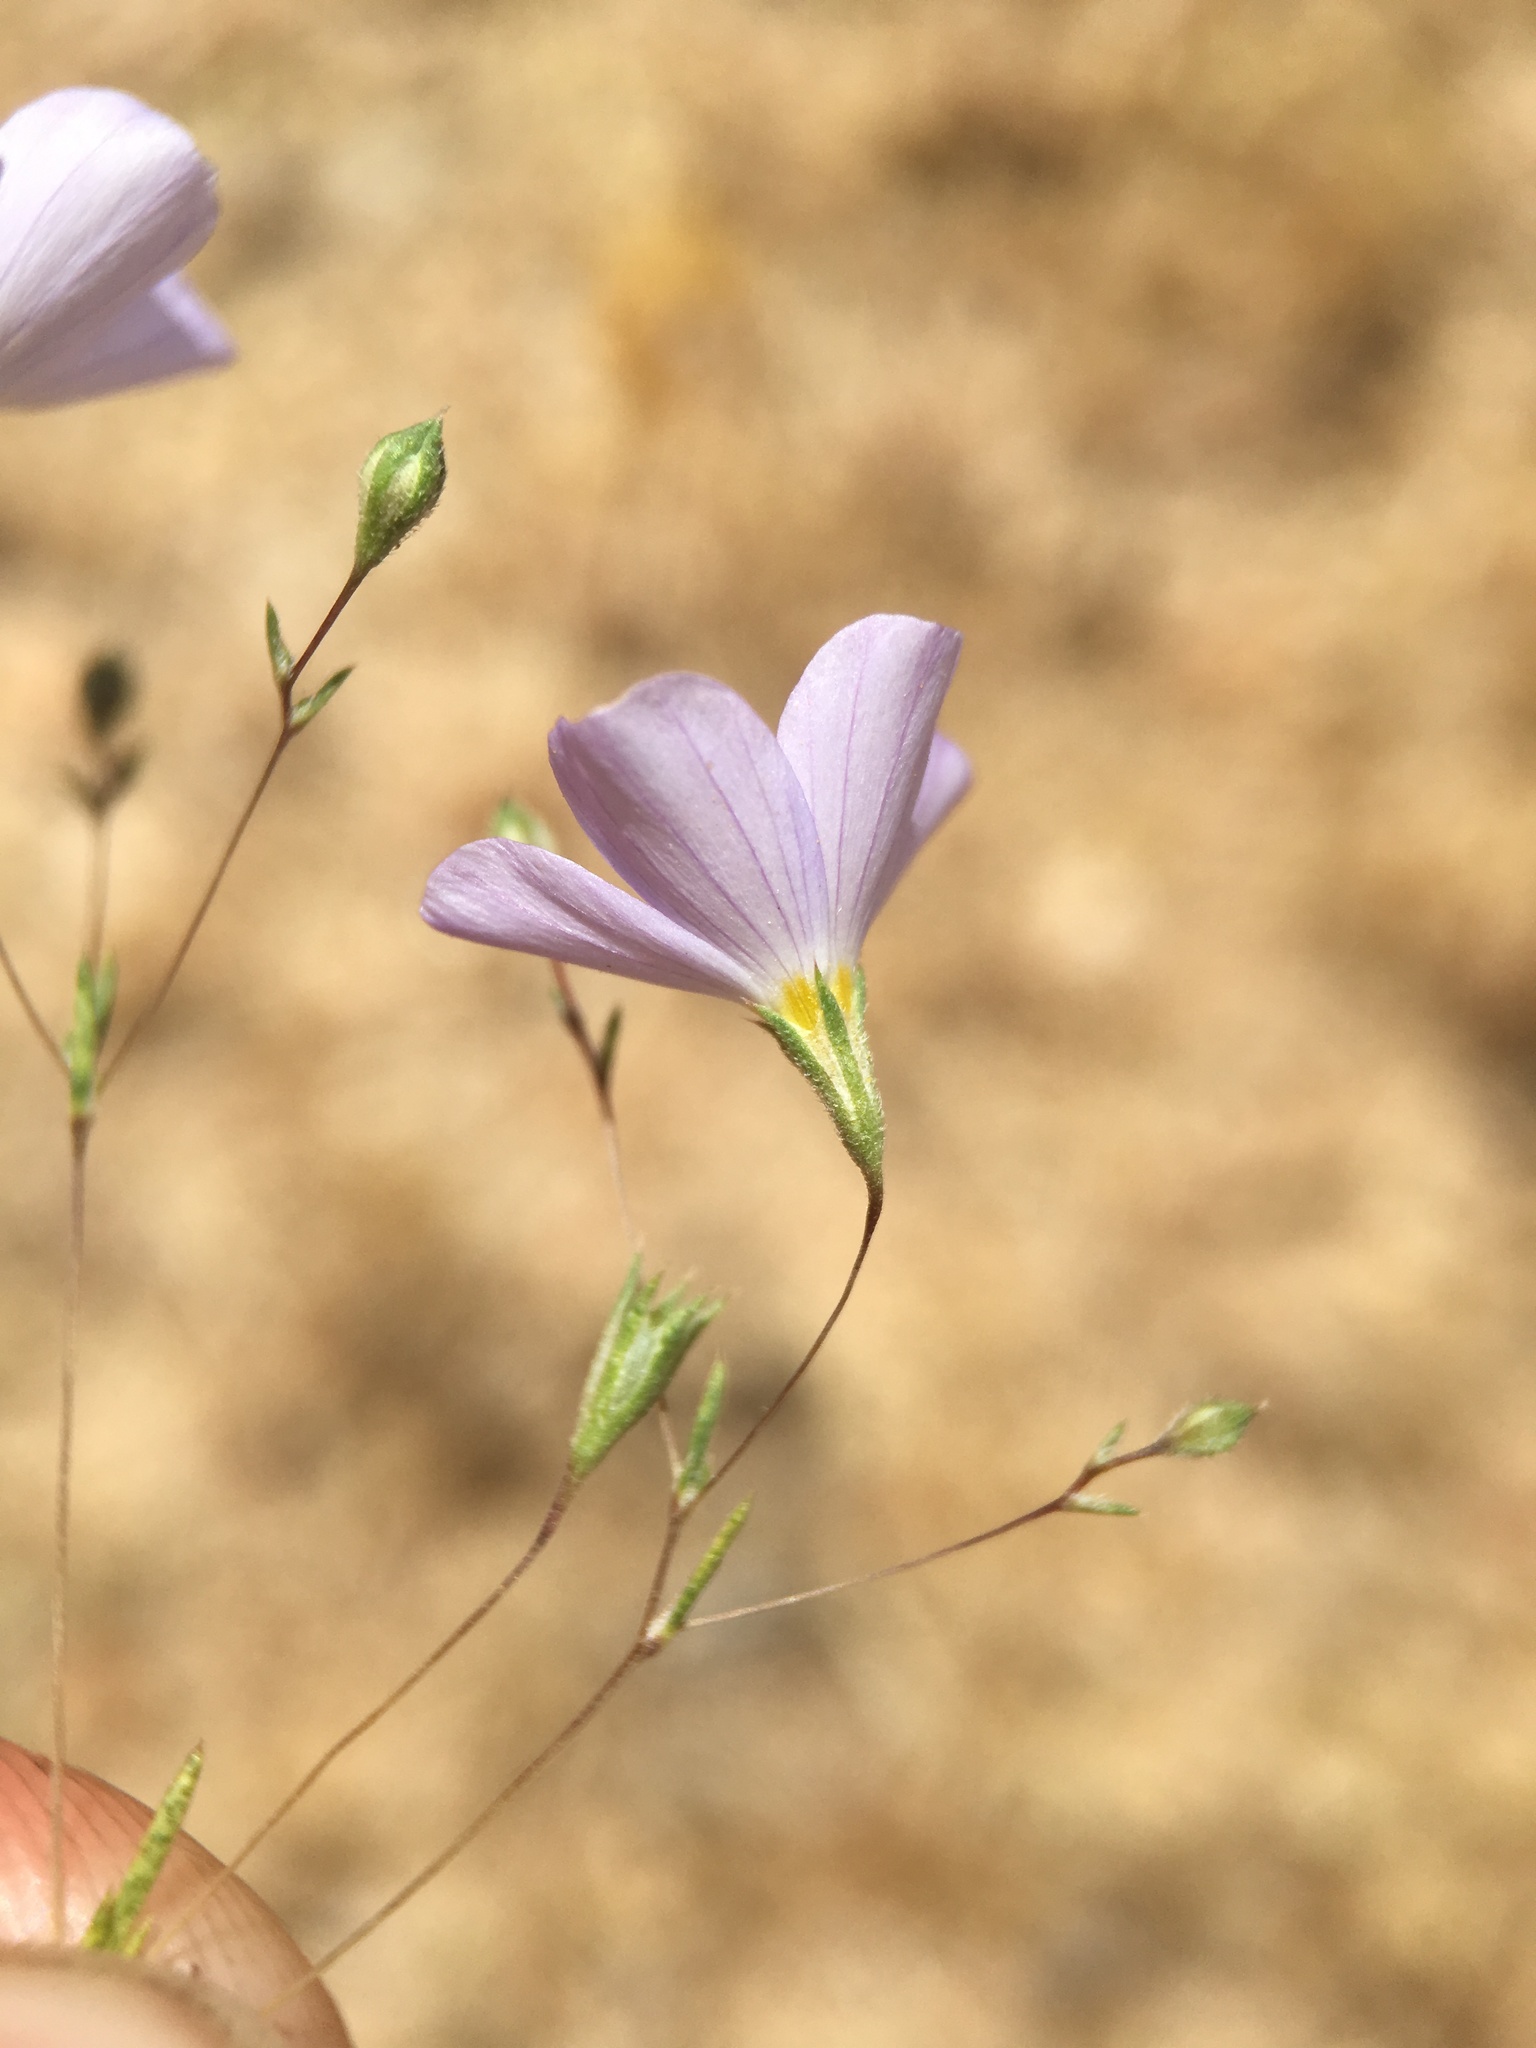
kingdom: Plantae
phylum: Tracheophyta
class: Magnoliopsida
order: Ericales
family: Polemoniaceae
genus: Leptosiphon
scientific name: Leptosiphon liniflorus
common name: Narrowflower flaxflower
